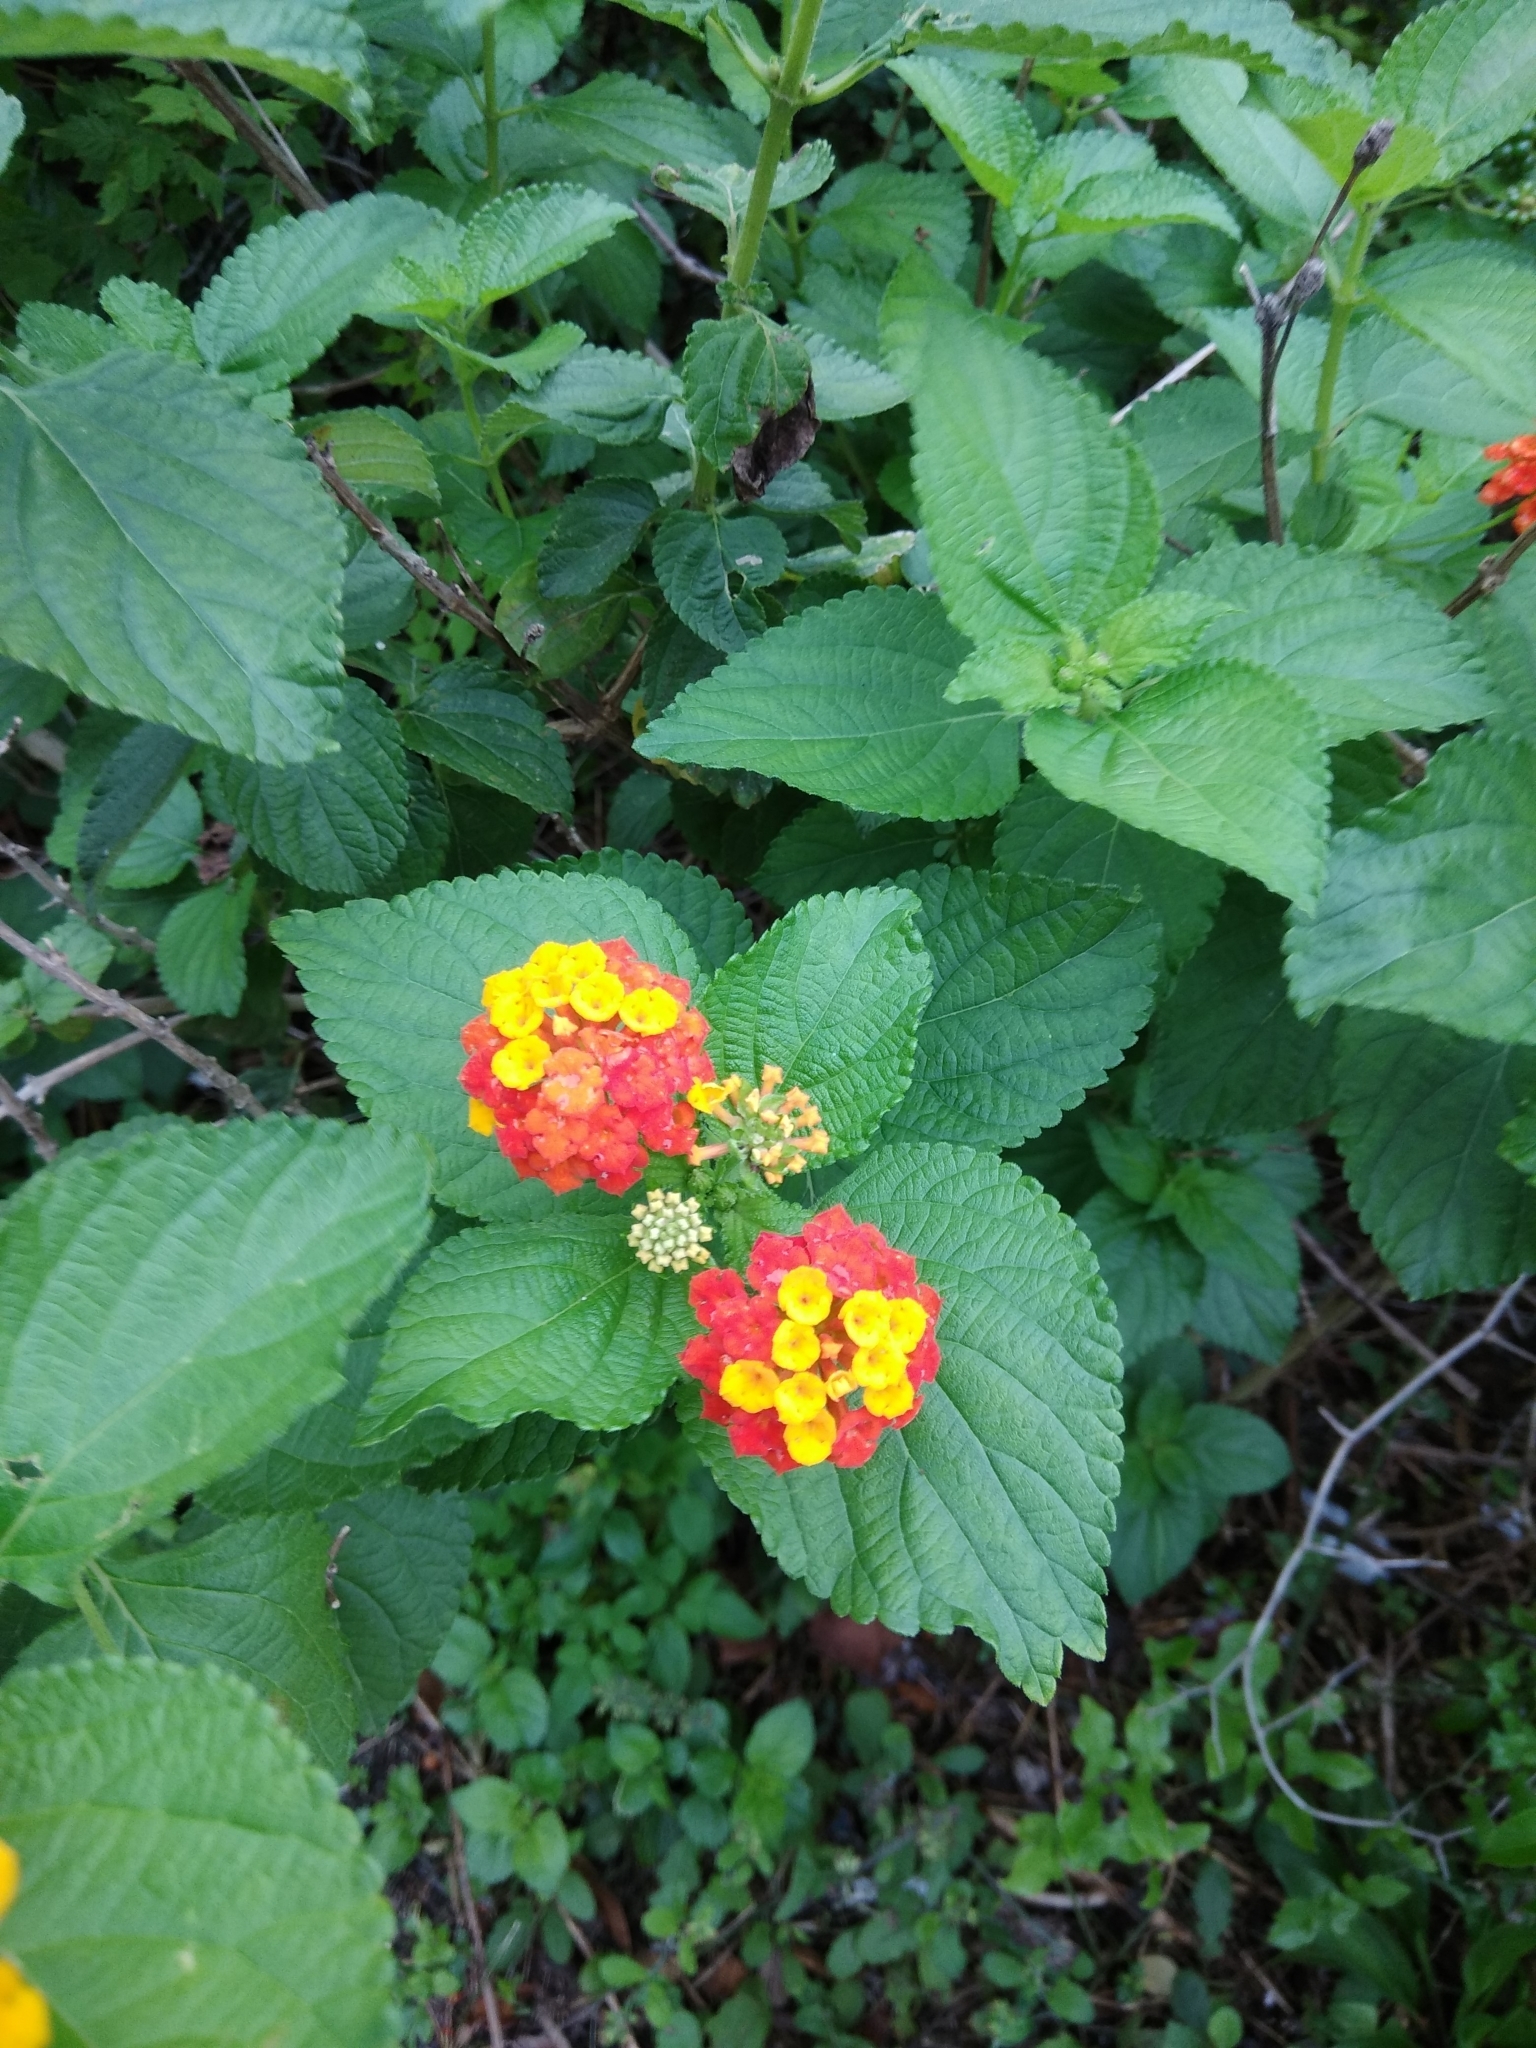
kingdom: Plantae
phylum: Tracheophyta
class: Magnoliopsida
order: Lamiales
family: Verbenaceae
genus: Lantana
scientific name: Lantana camara
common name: Lantana
